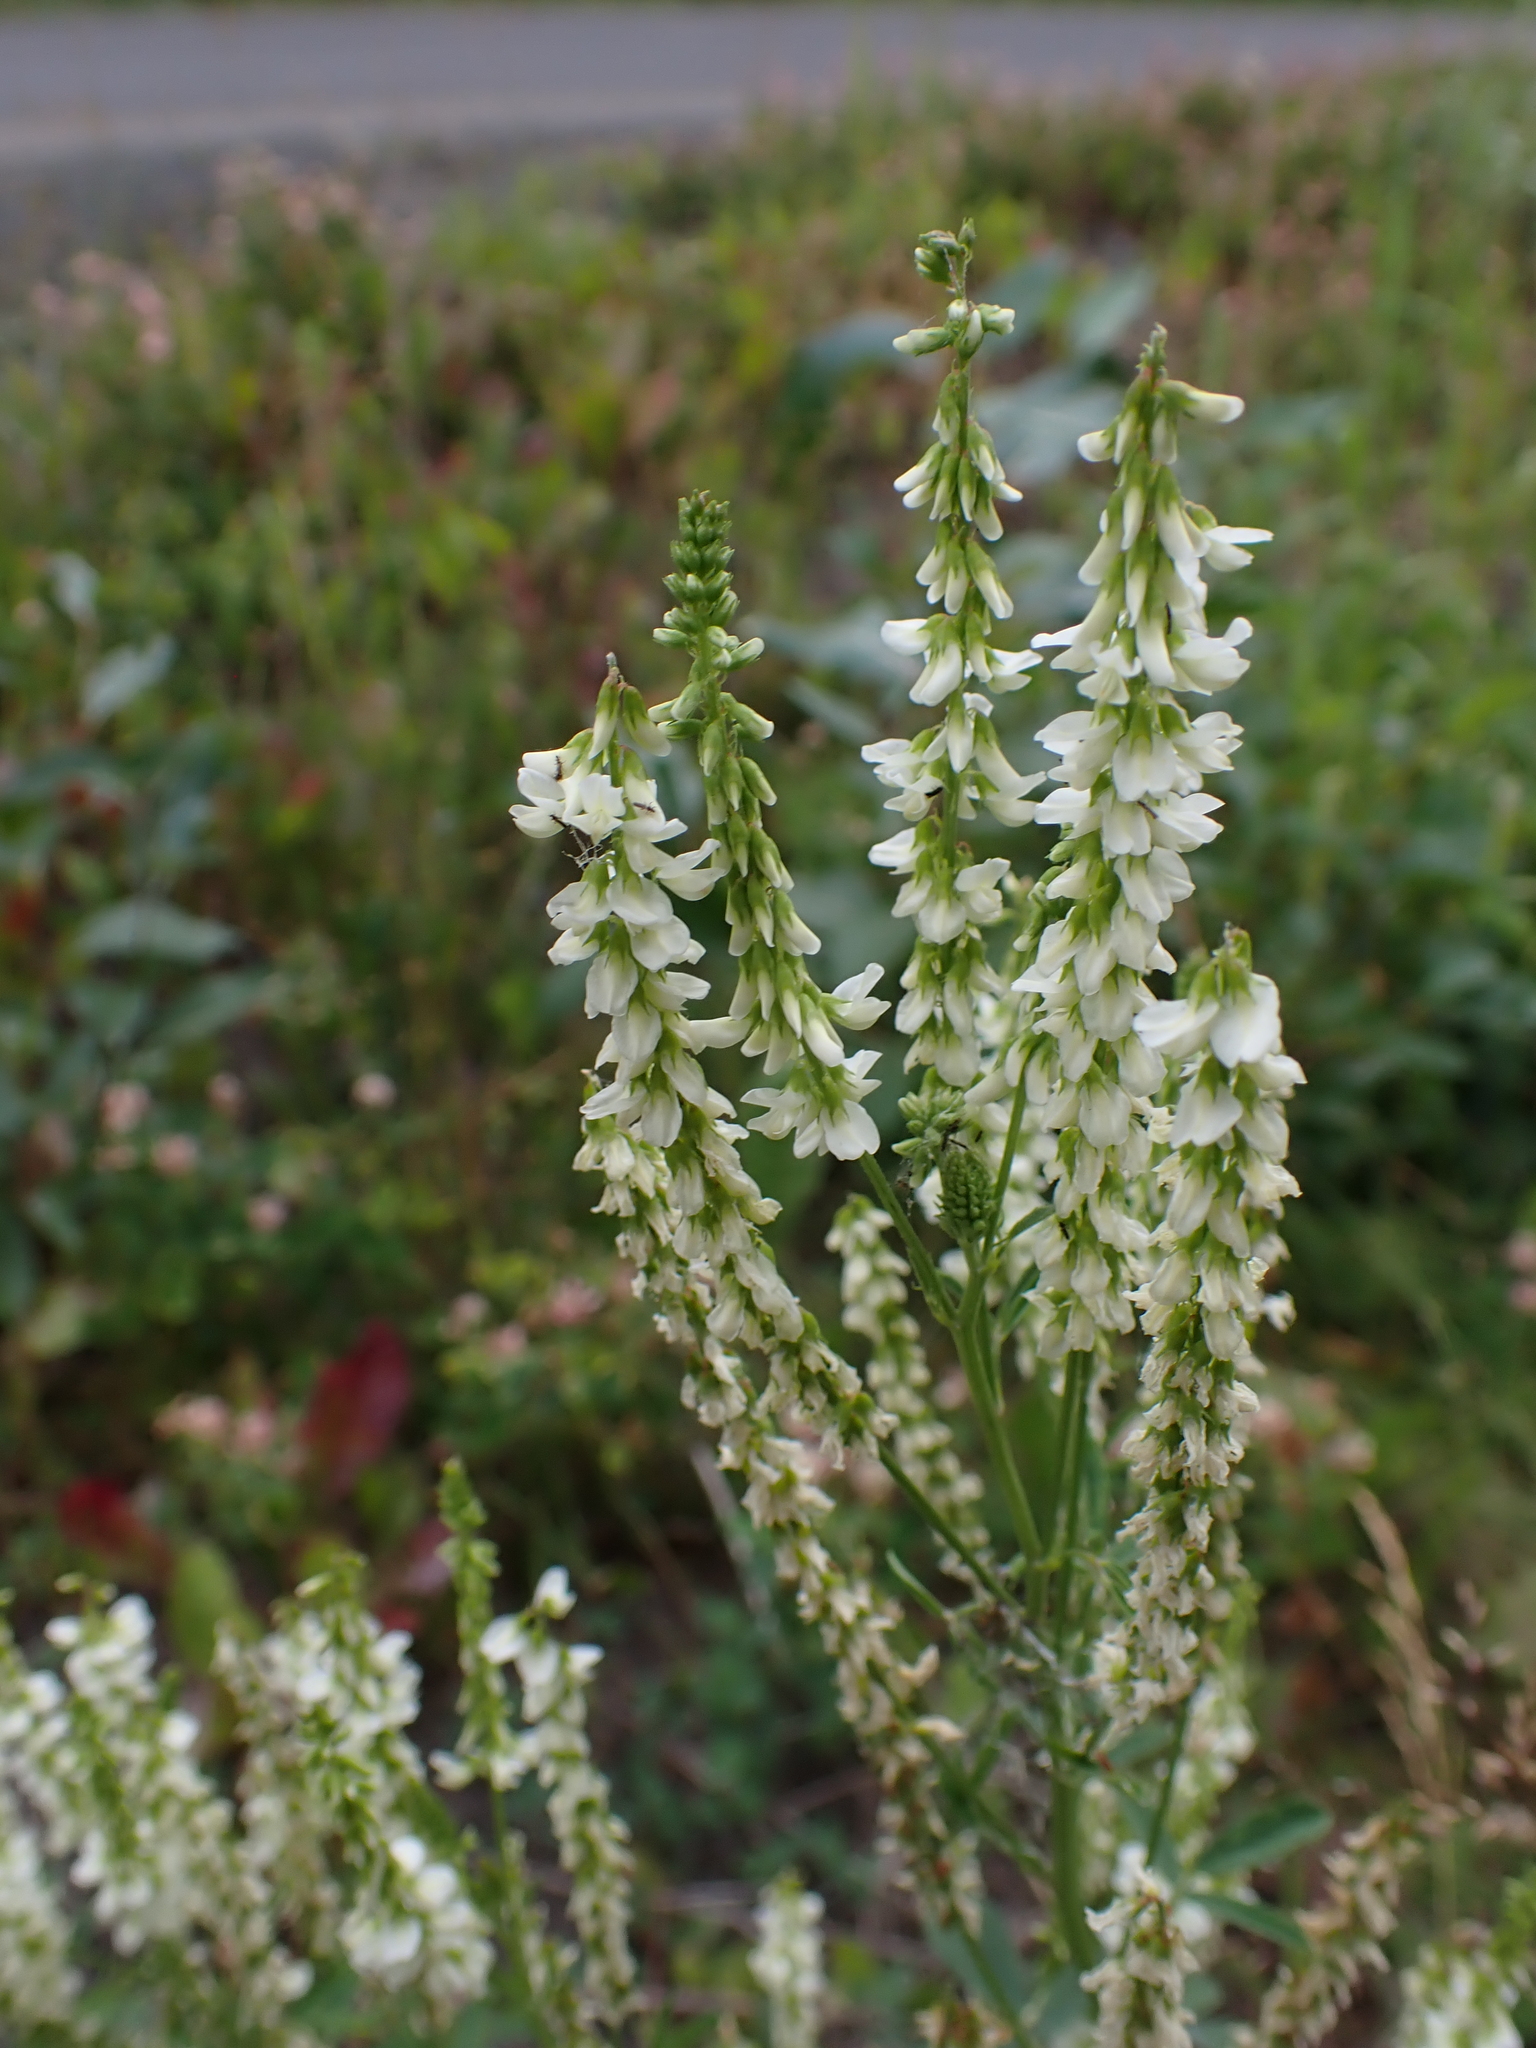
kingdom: Plantae
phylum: Tracheophyta
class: Magnoliopsida
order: Fabales
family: Fabaceae
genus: Melilotus
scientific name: Melilotus albus
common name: White melilot
